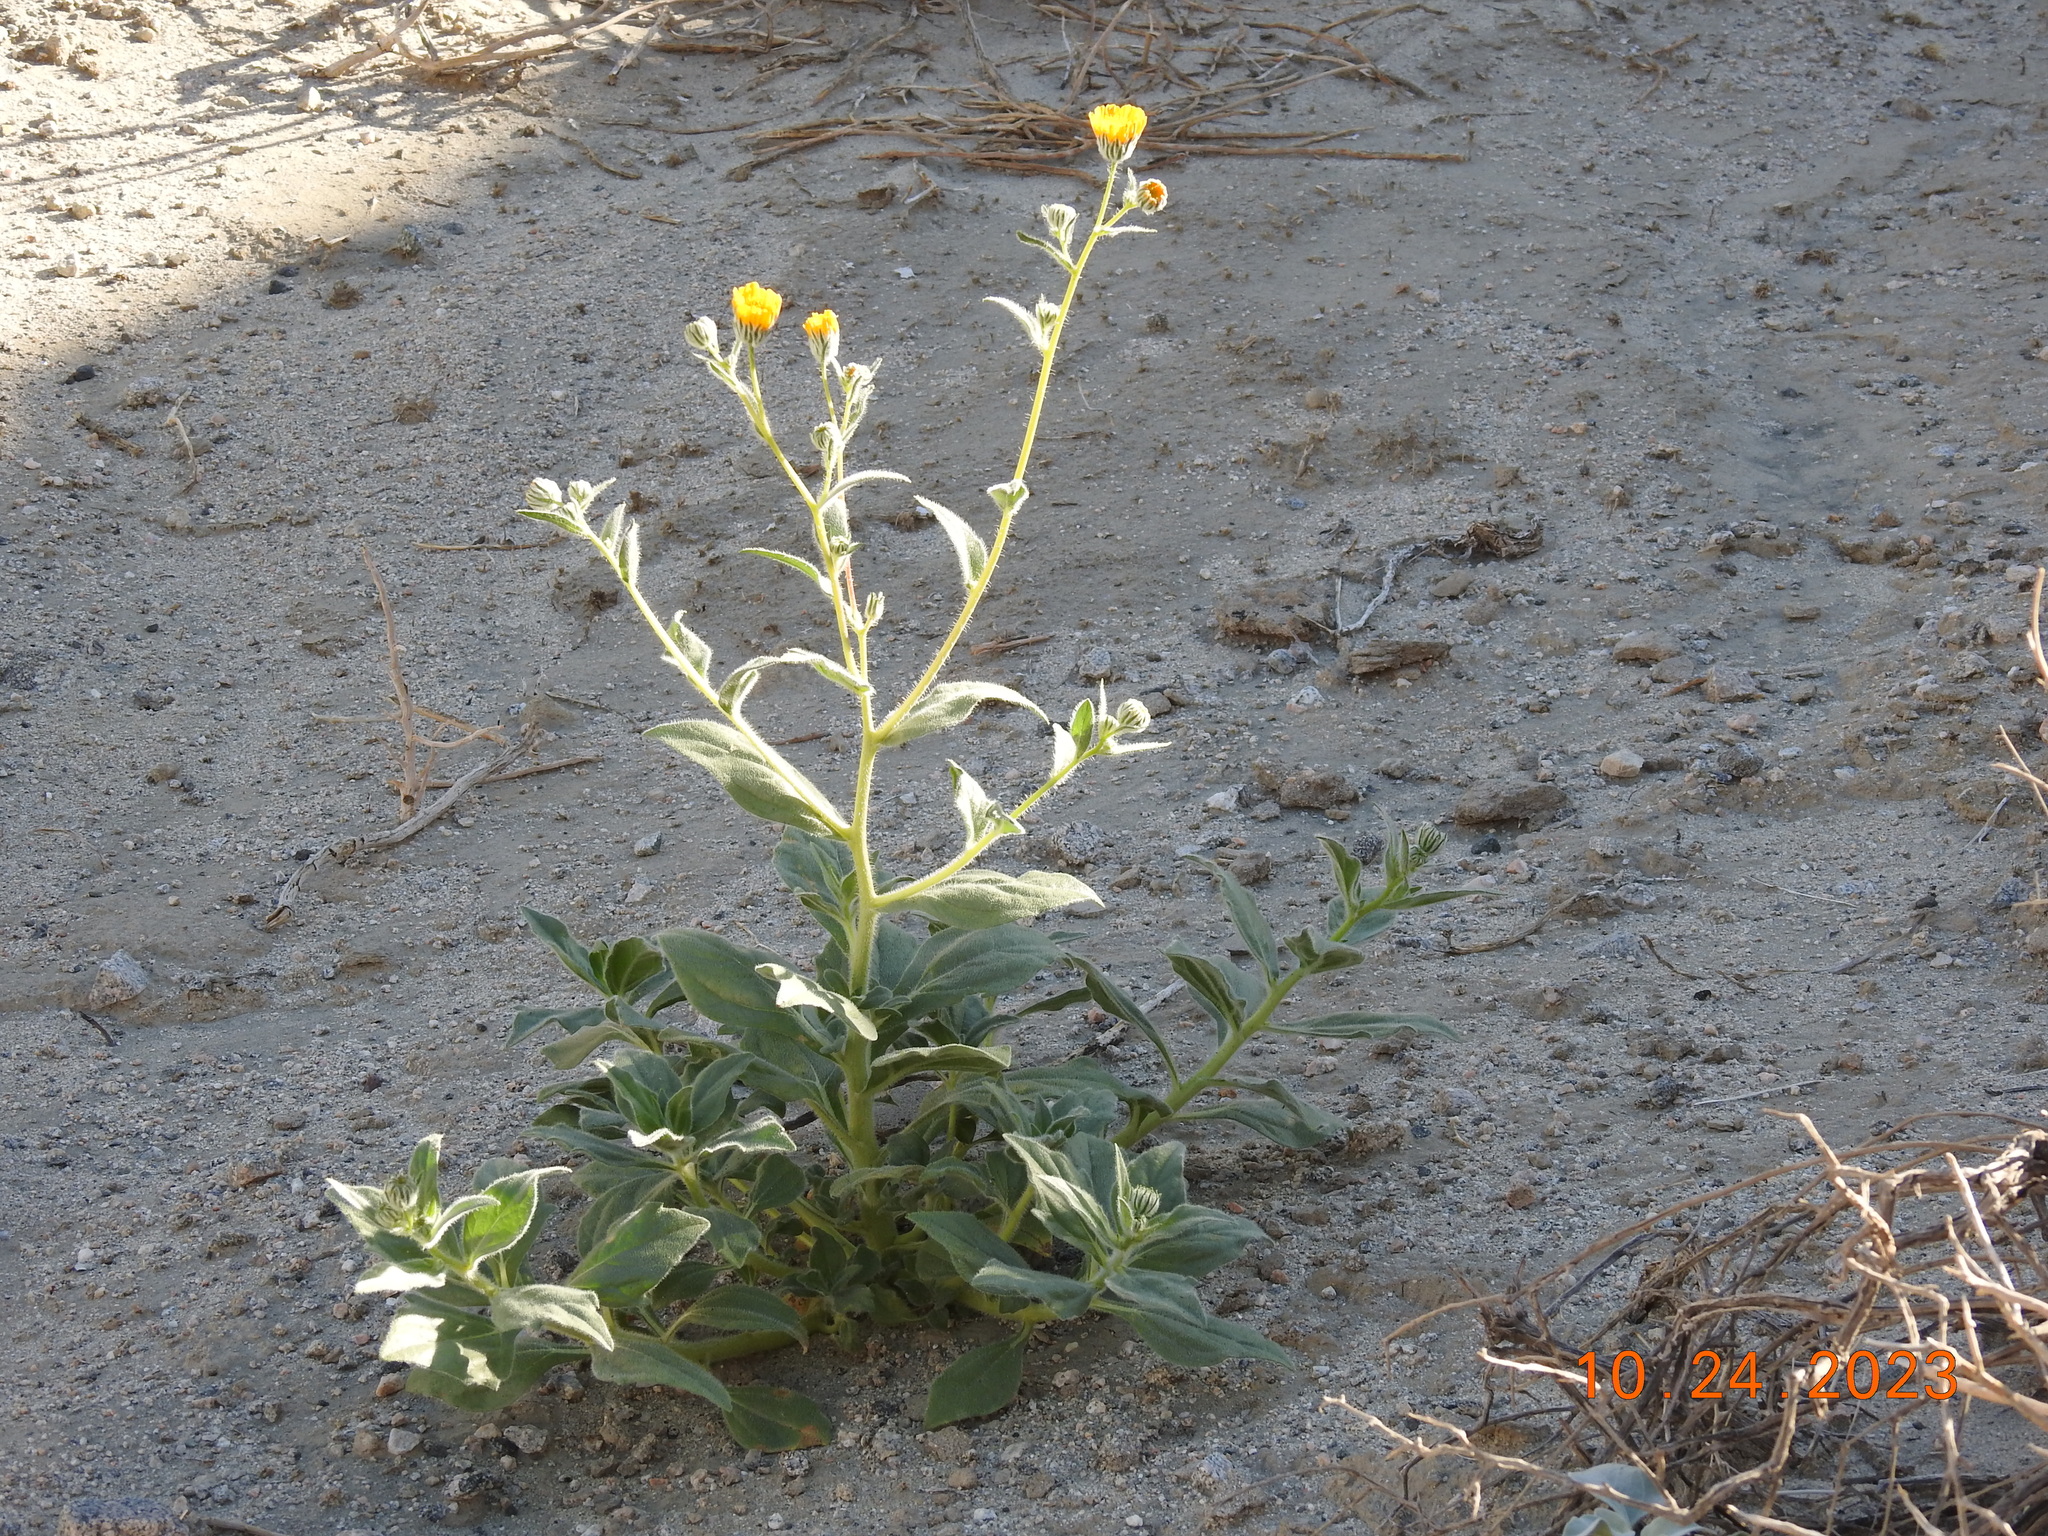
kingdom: Plantae
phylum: Tracheophyta
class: Magnoliopsida
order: Asterales
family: Asteraceae
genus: Geraea
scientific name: Geraea canescens
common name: Desert-gold
